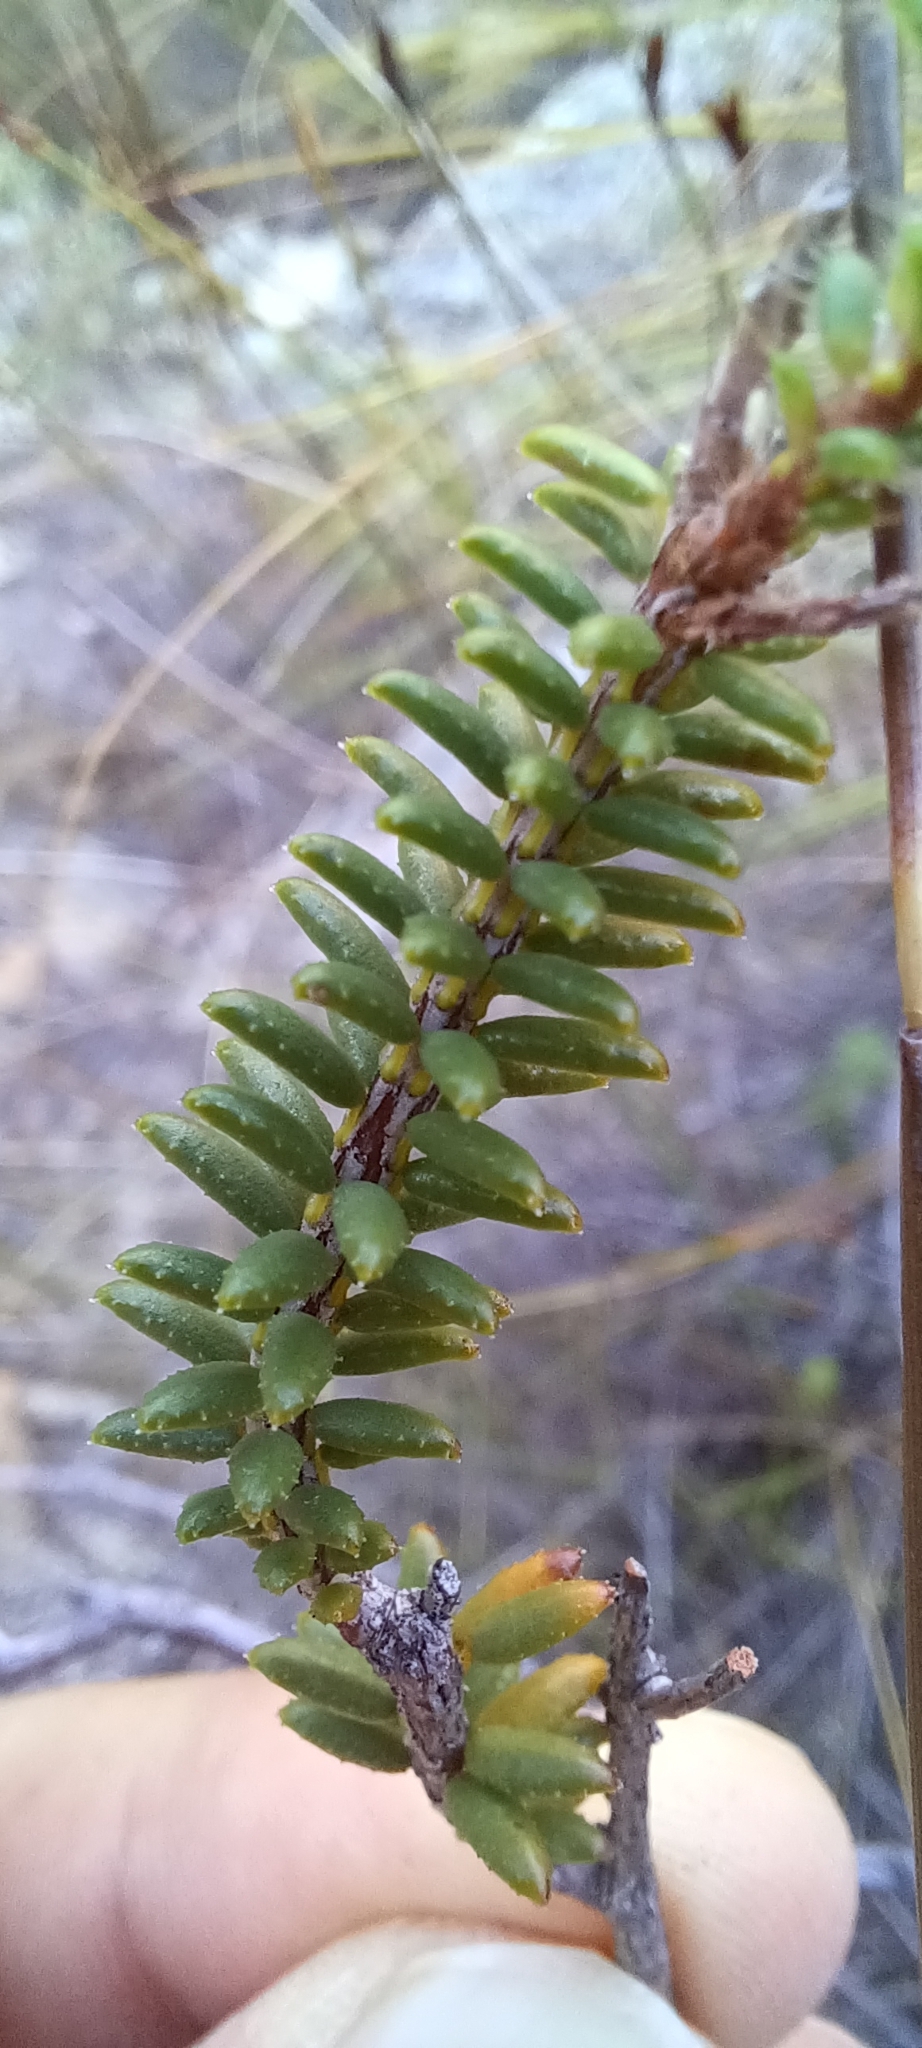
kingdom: Plantae
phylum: Tracheophyta
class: Magnoliopsida
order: Ericales
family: Ericaceae
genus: Erica
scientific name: Erica tumida
